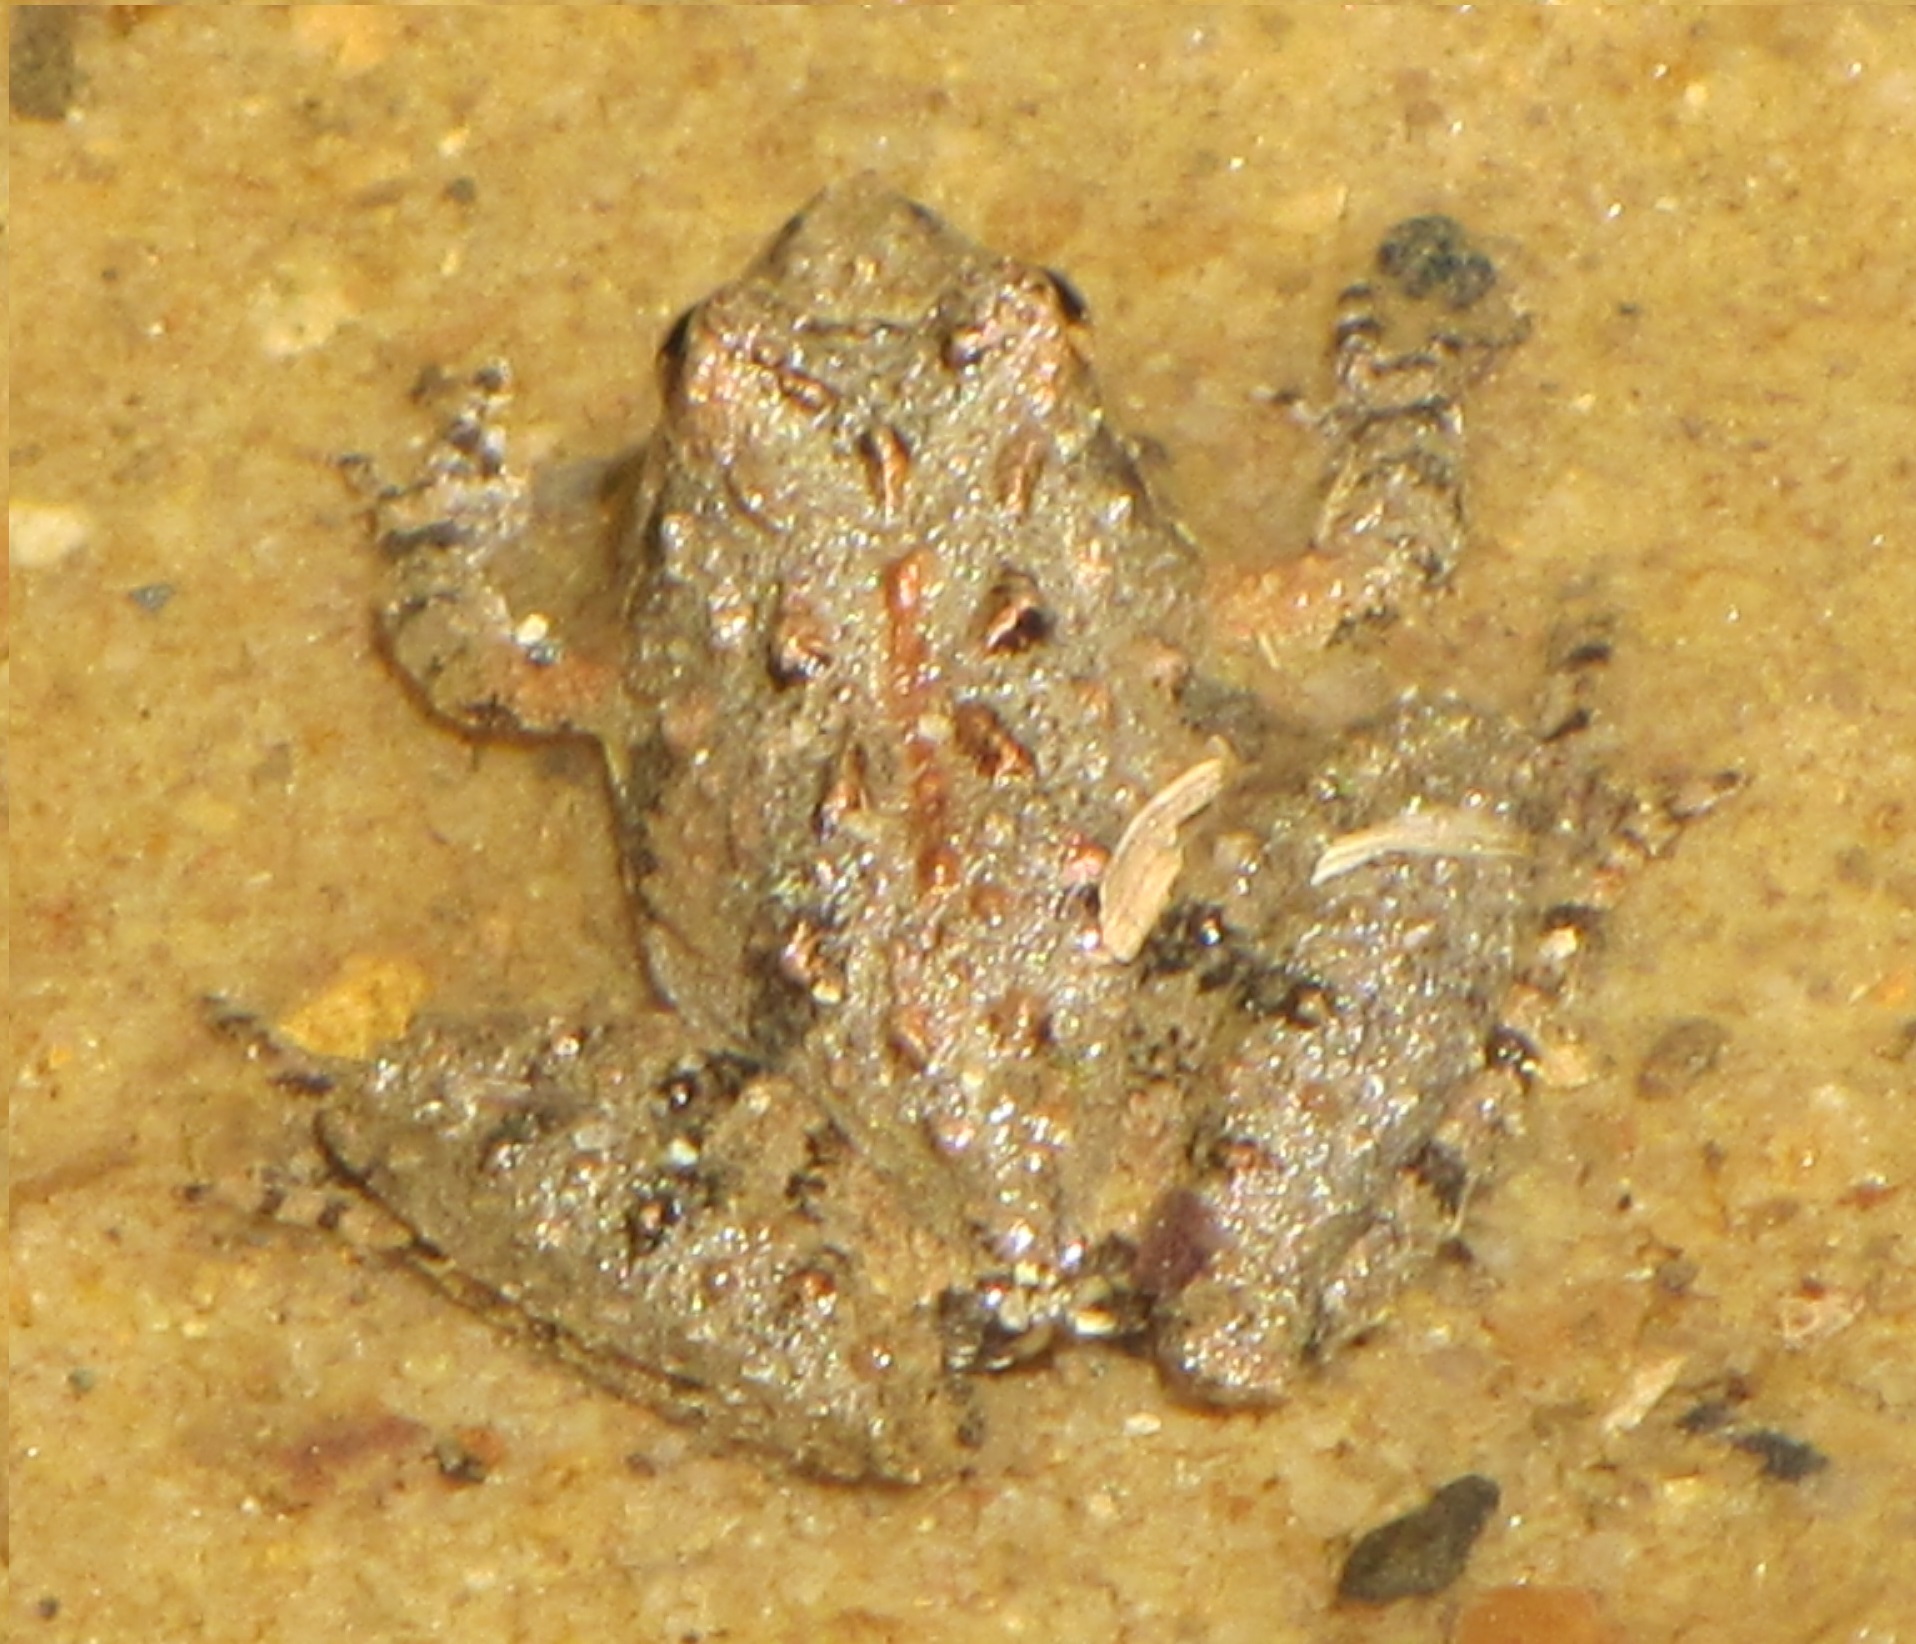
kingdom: Animalia
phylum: Chordata
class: Amphibia
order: Anura
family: Hylidae
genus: Acris
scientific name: Acris crepitans
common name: Northern cricket frog
